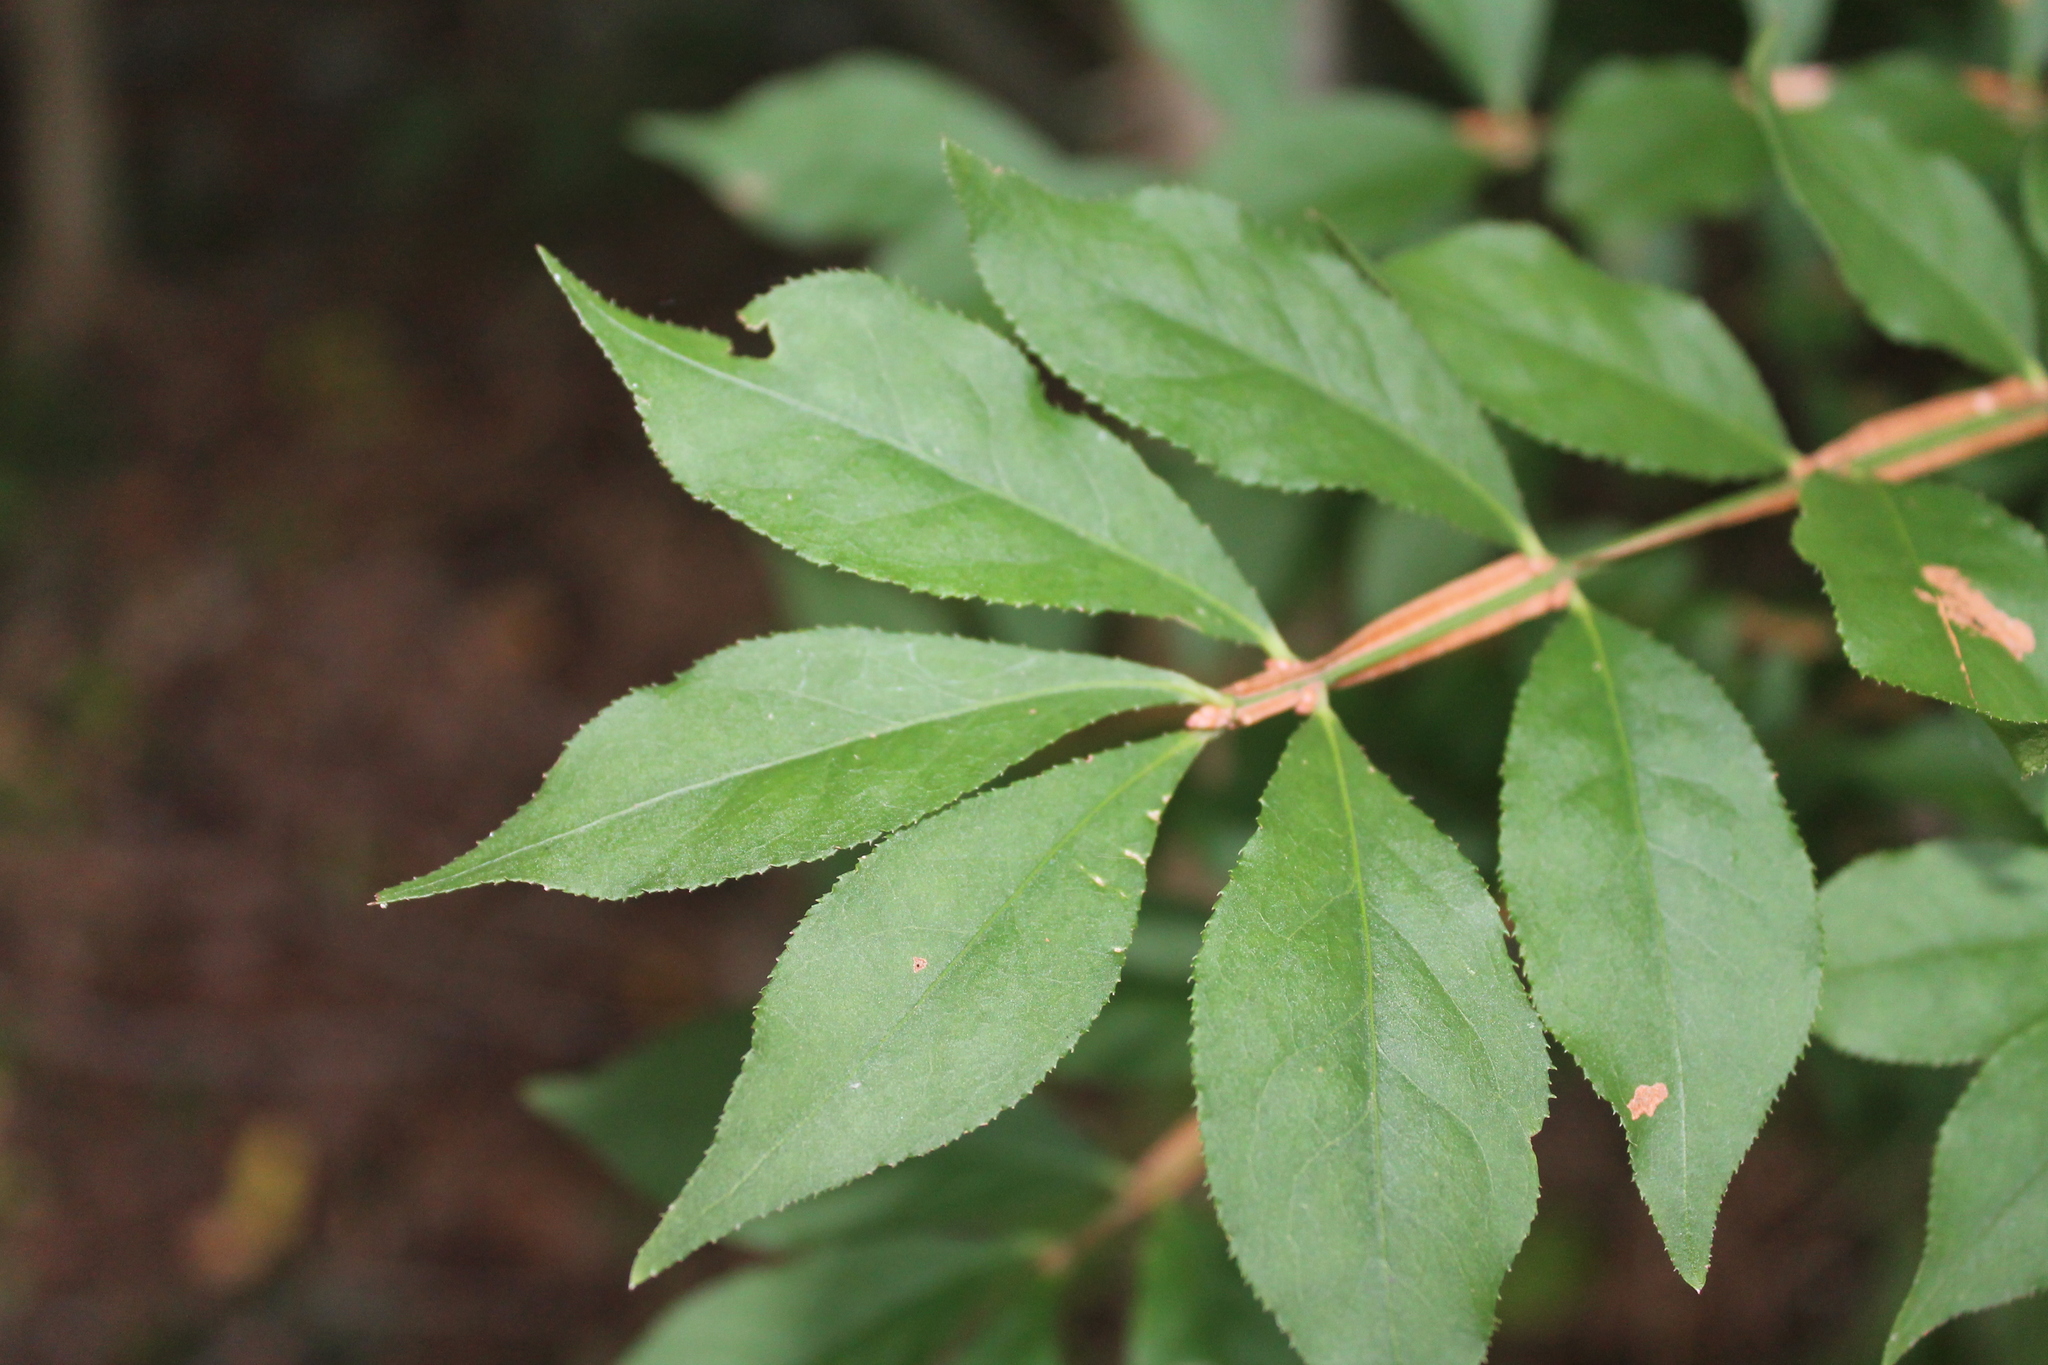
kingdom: Plantae
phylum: Tracheophyta
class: Magnoliopsida
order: Celastrales
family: Celastraceae
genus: Euonymus
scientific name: Euonymus alatus
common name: Winged euonymus
